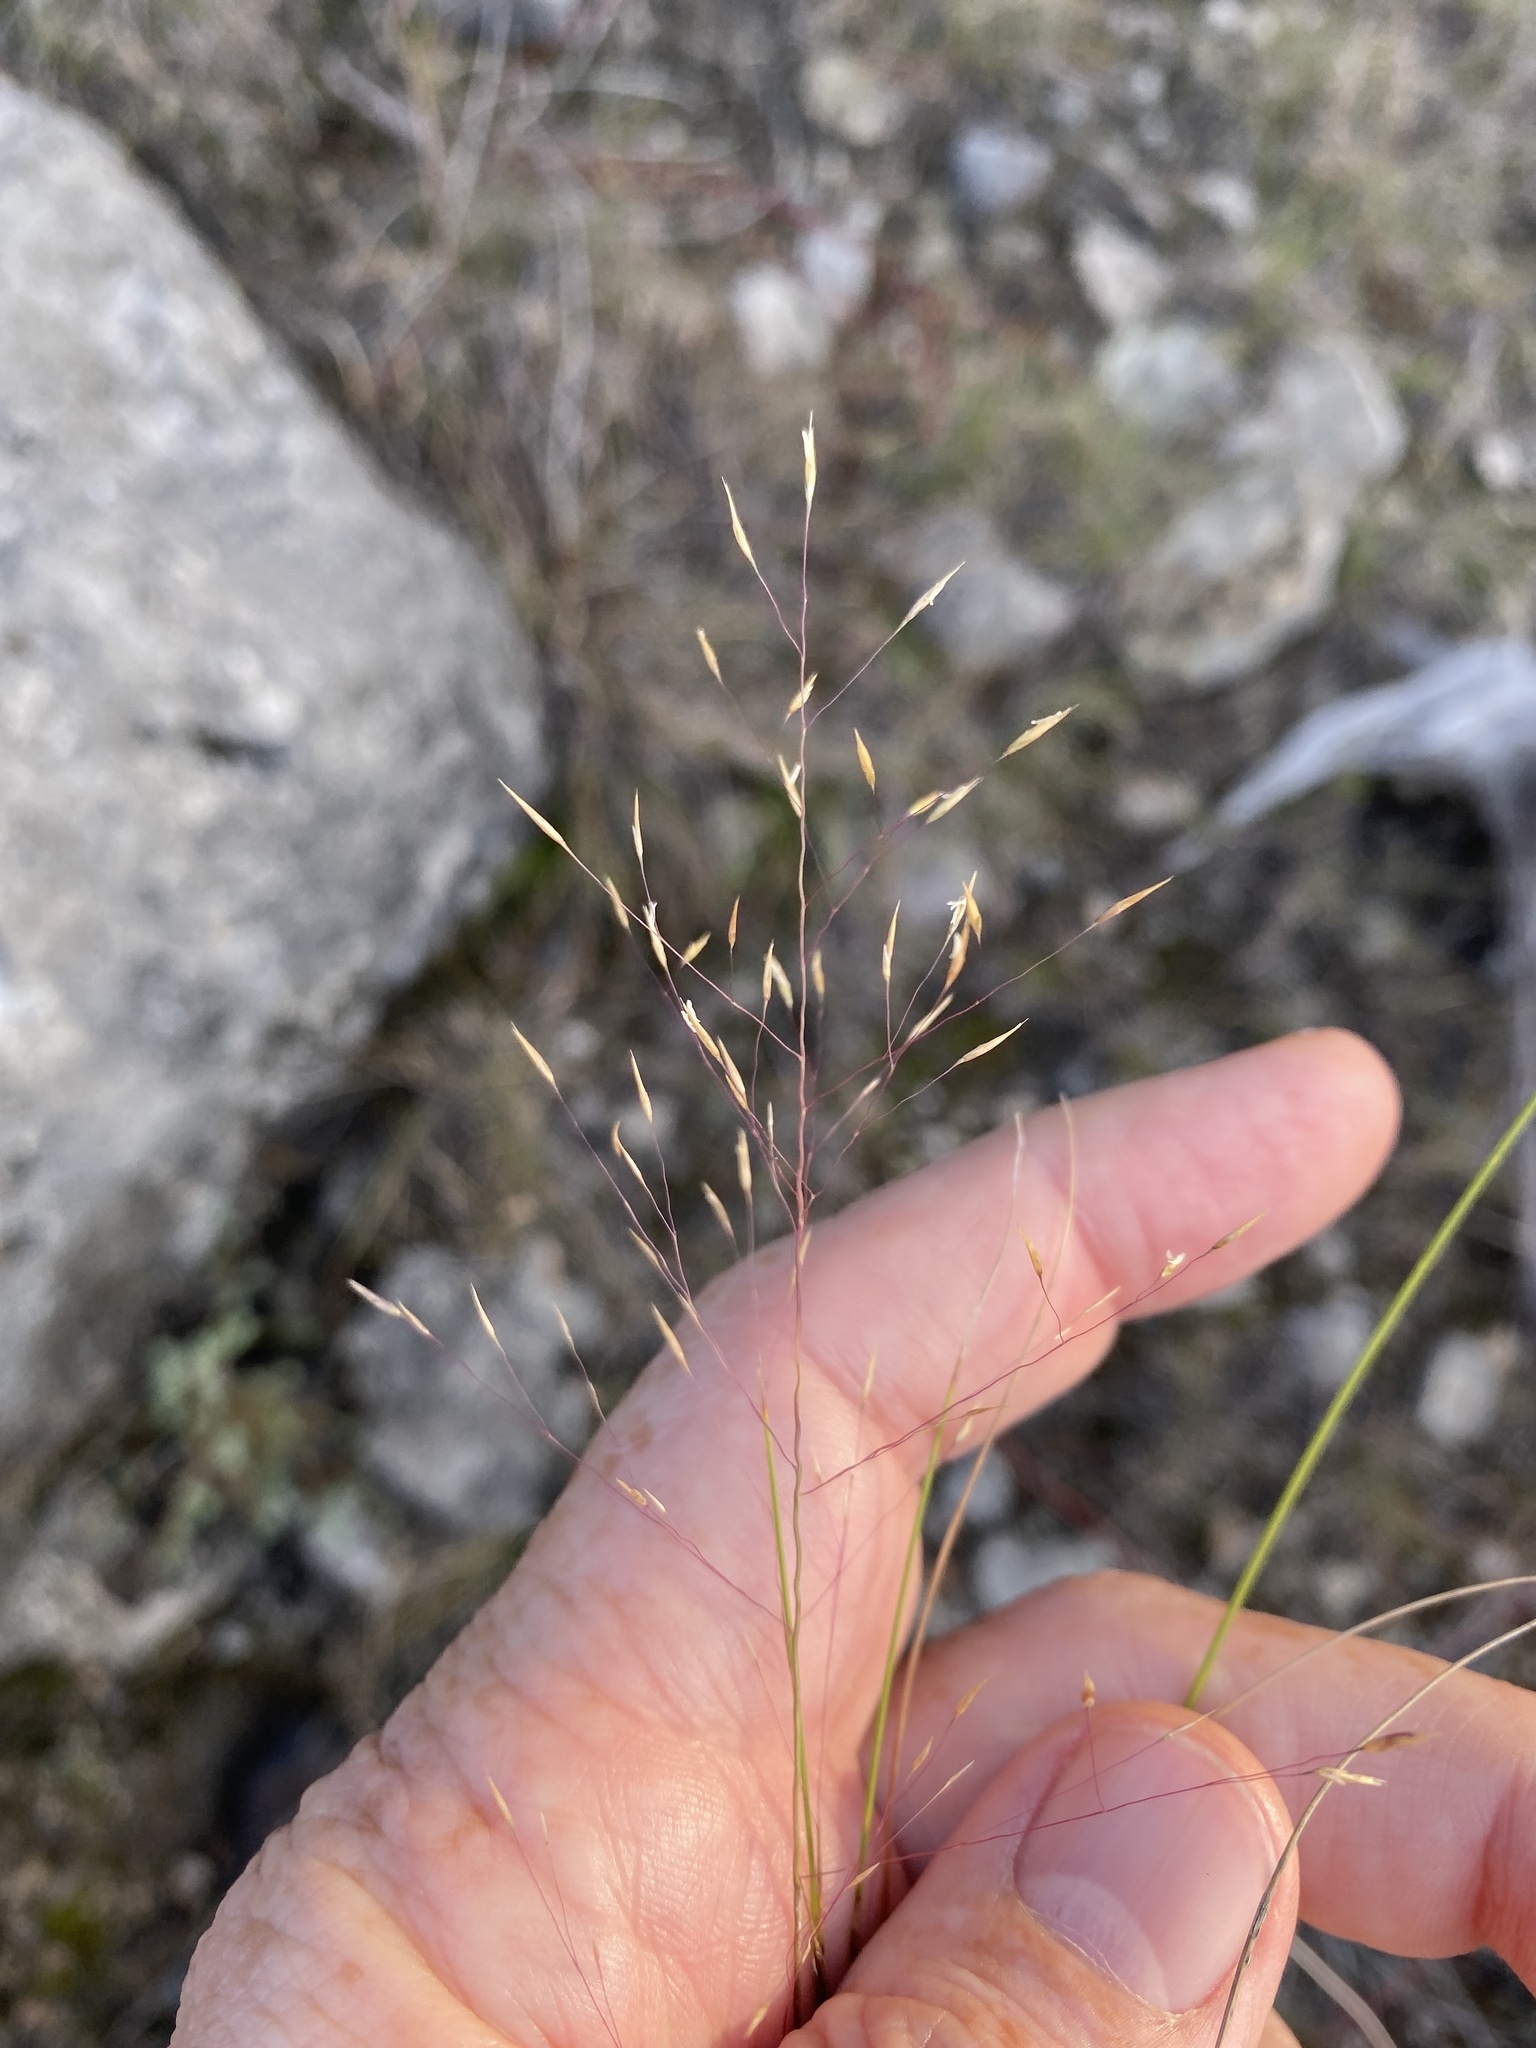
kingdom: Plantae
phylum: Tracheophyta
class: Liliopsida
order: Poales
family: Poaceae
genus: Muhlenbergia
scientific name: Muhlenbergia reverchonii
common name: Seep muhly
